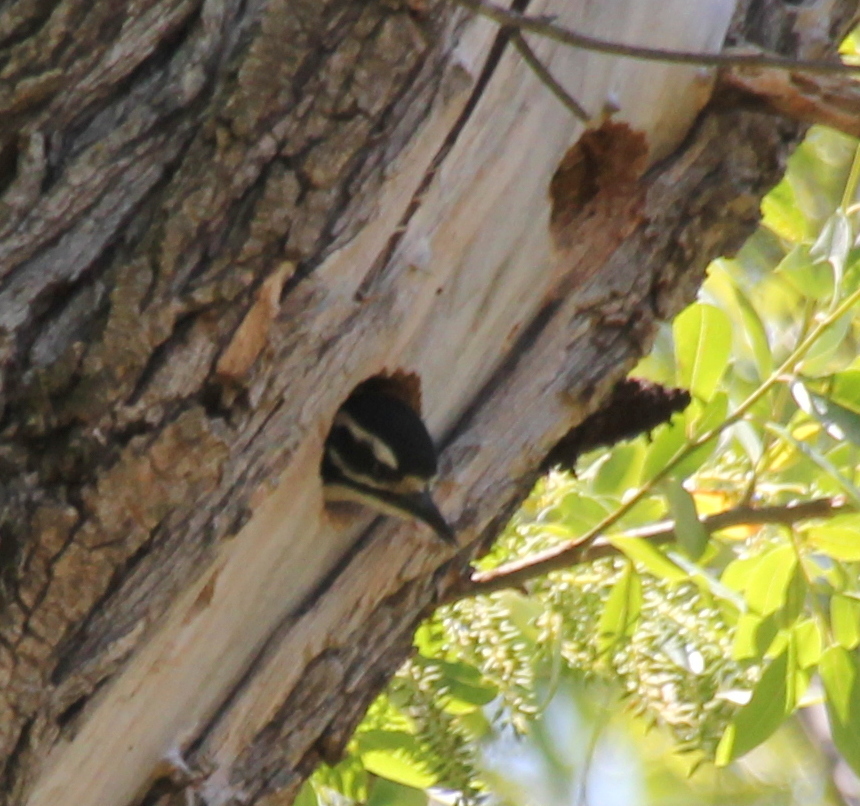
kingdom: Animalia
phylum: Chordata
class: Aves
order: Piciformes
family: Picidae
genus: Dryobates
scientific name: Dryobates nuttallii
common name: Nuttall's woodpecker
